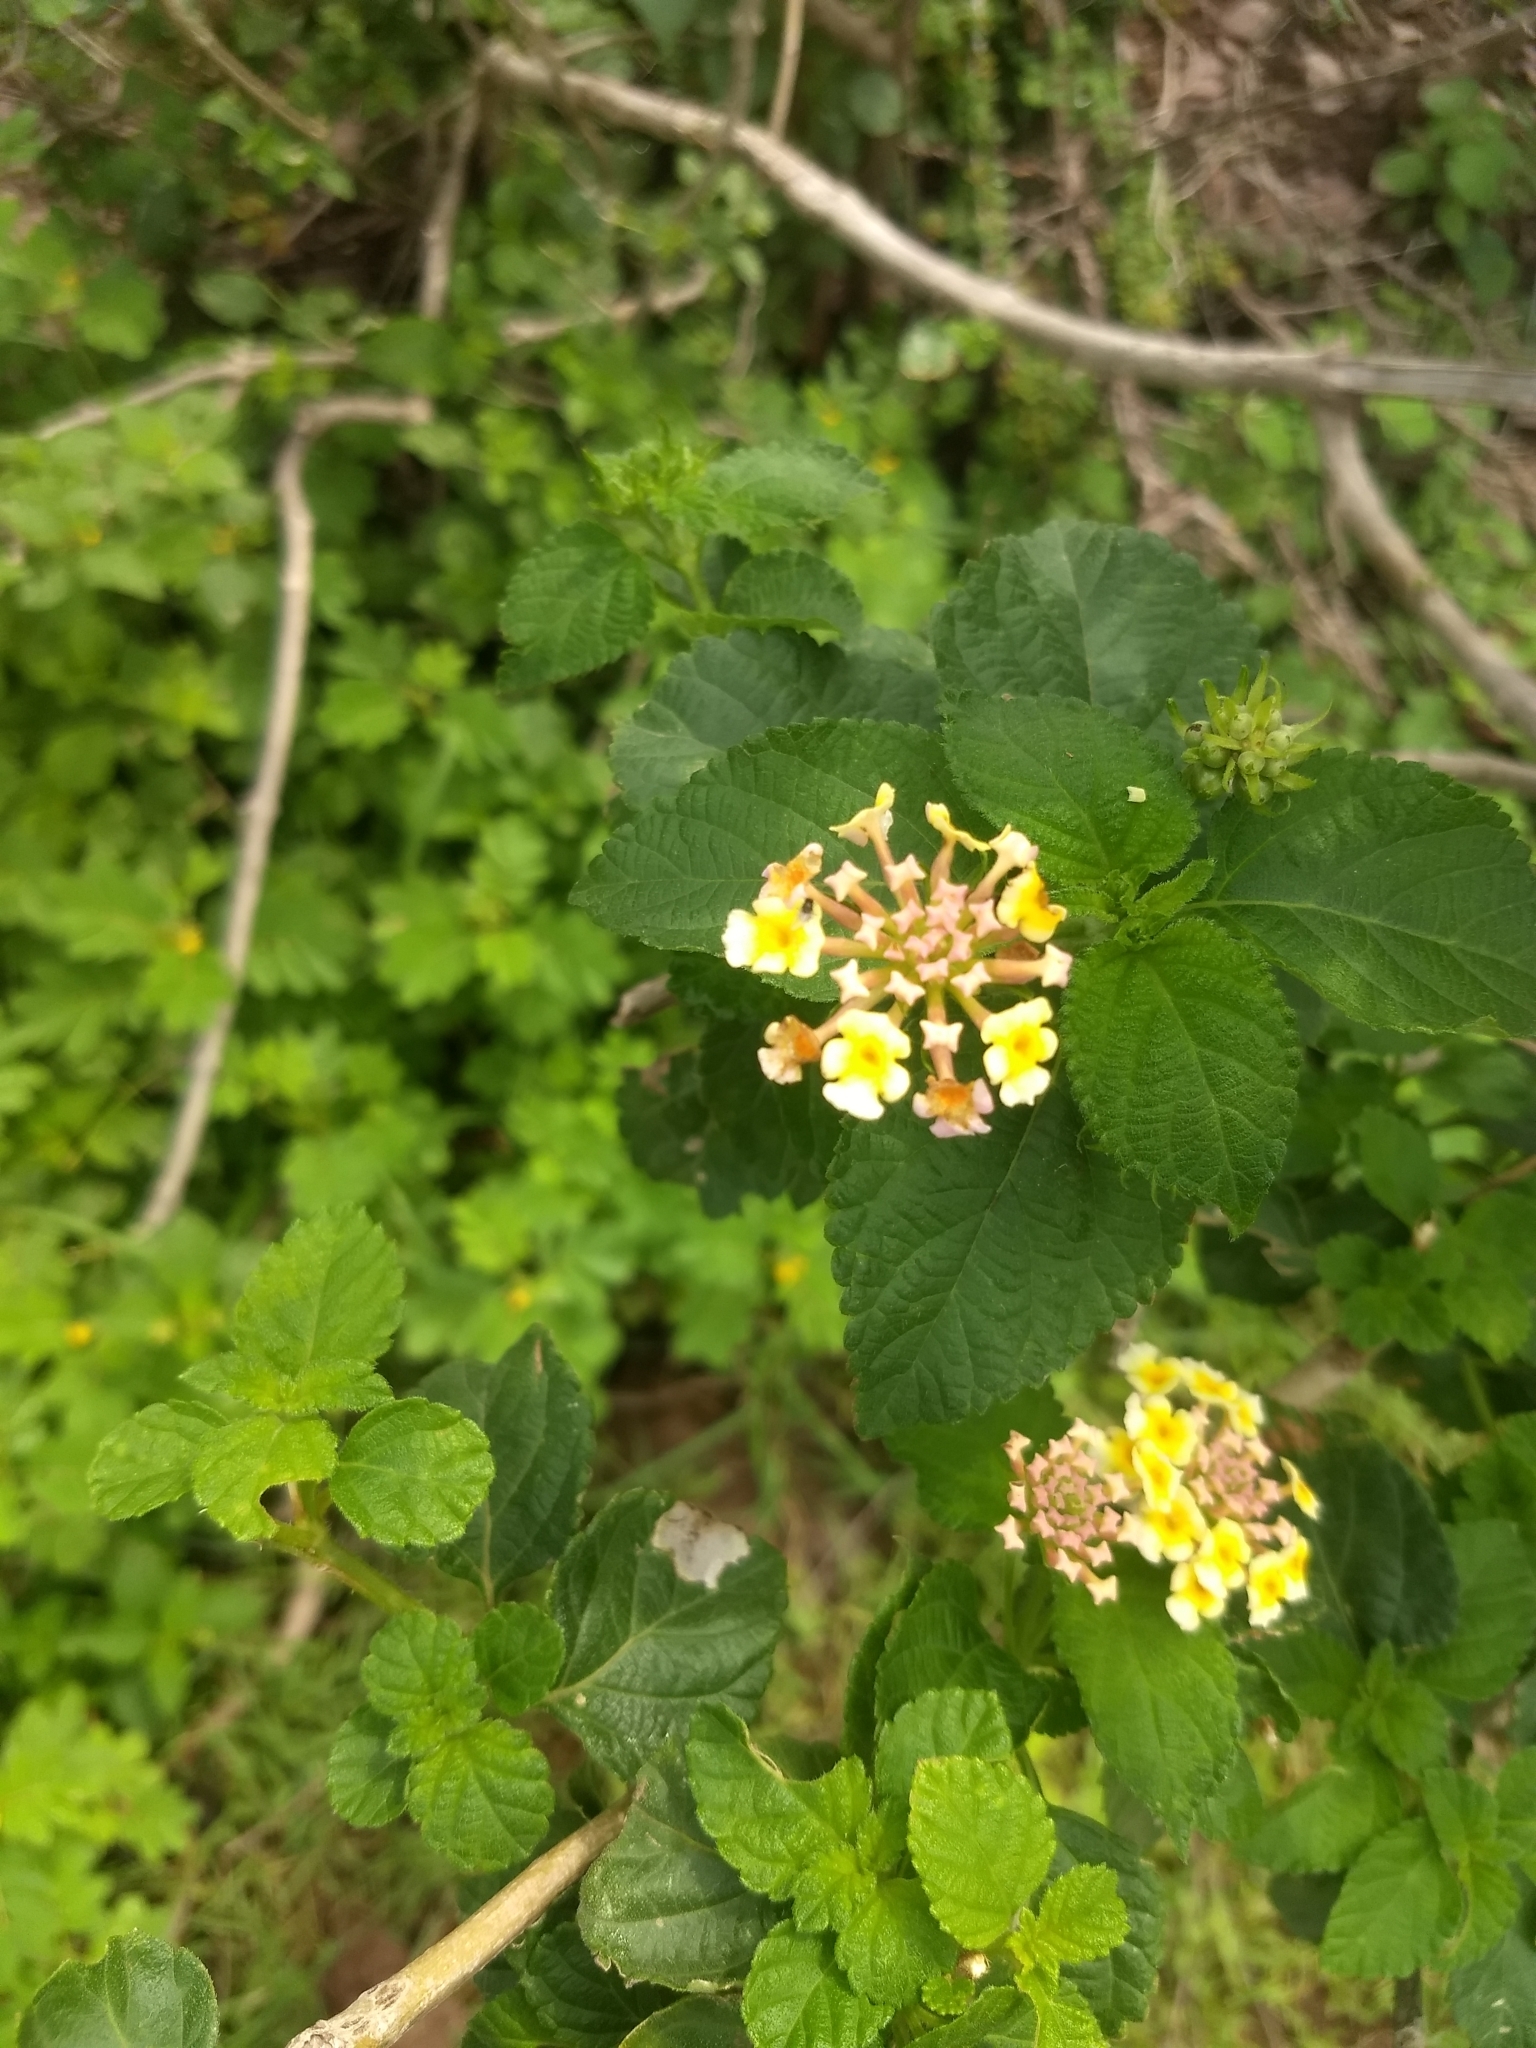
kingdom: Plantae
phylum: Tracheophyta
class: Magnoliopsida
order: Lamiales
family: Verbenaceae
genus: Lantana
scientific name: Lantana camara
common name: Lantana
